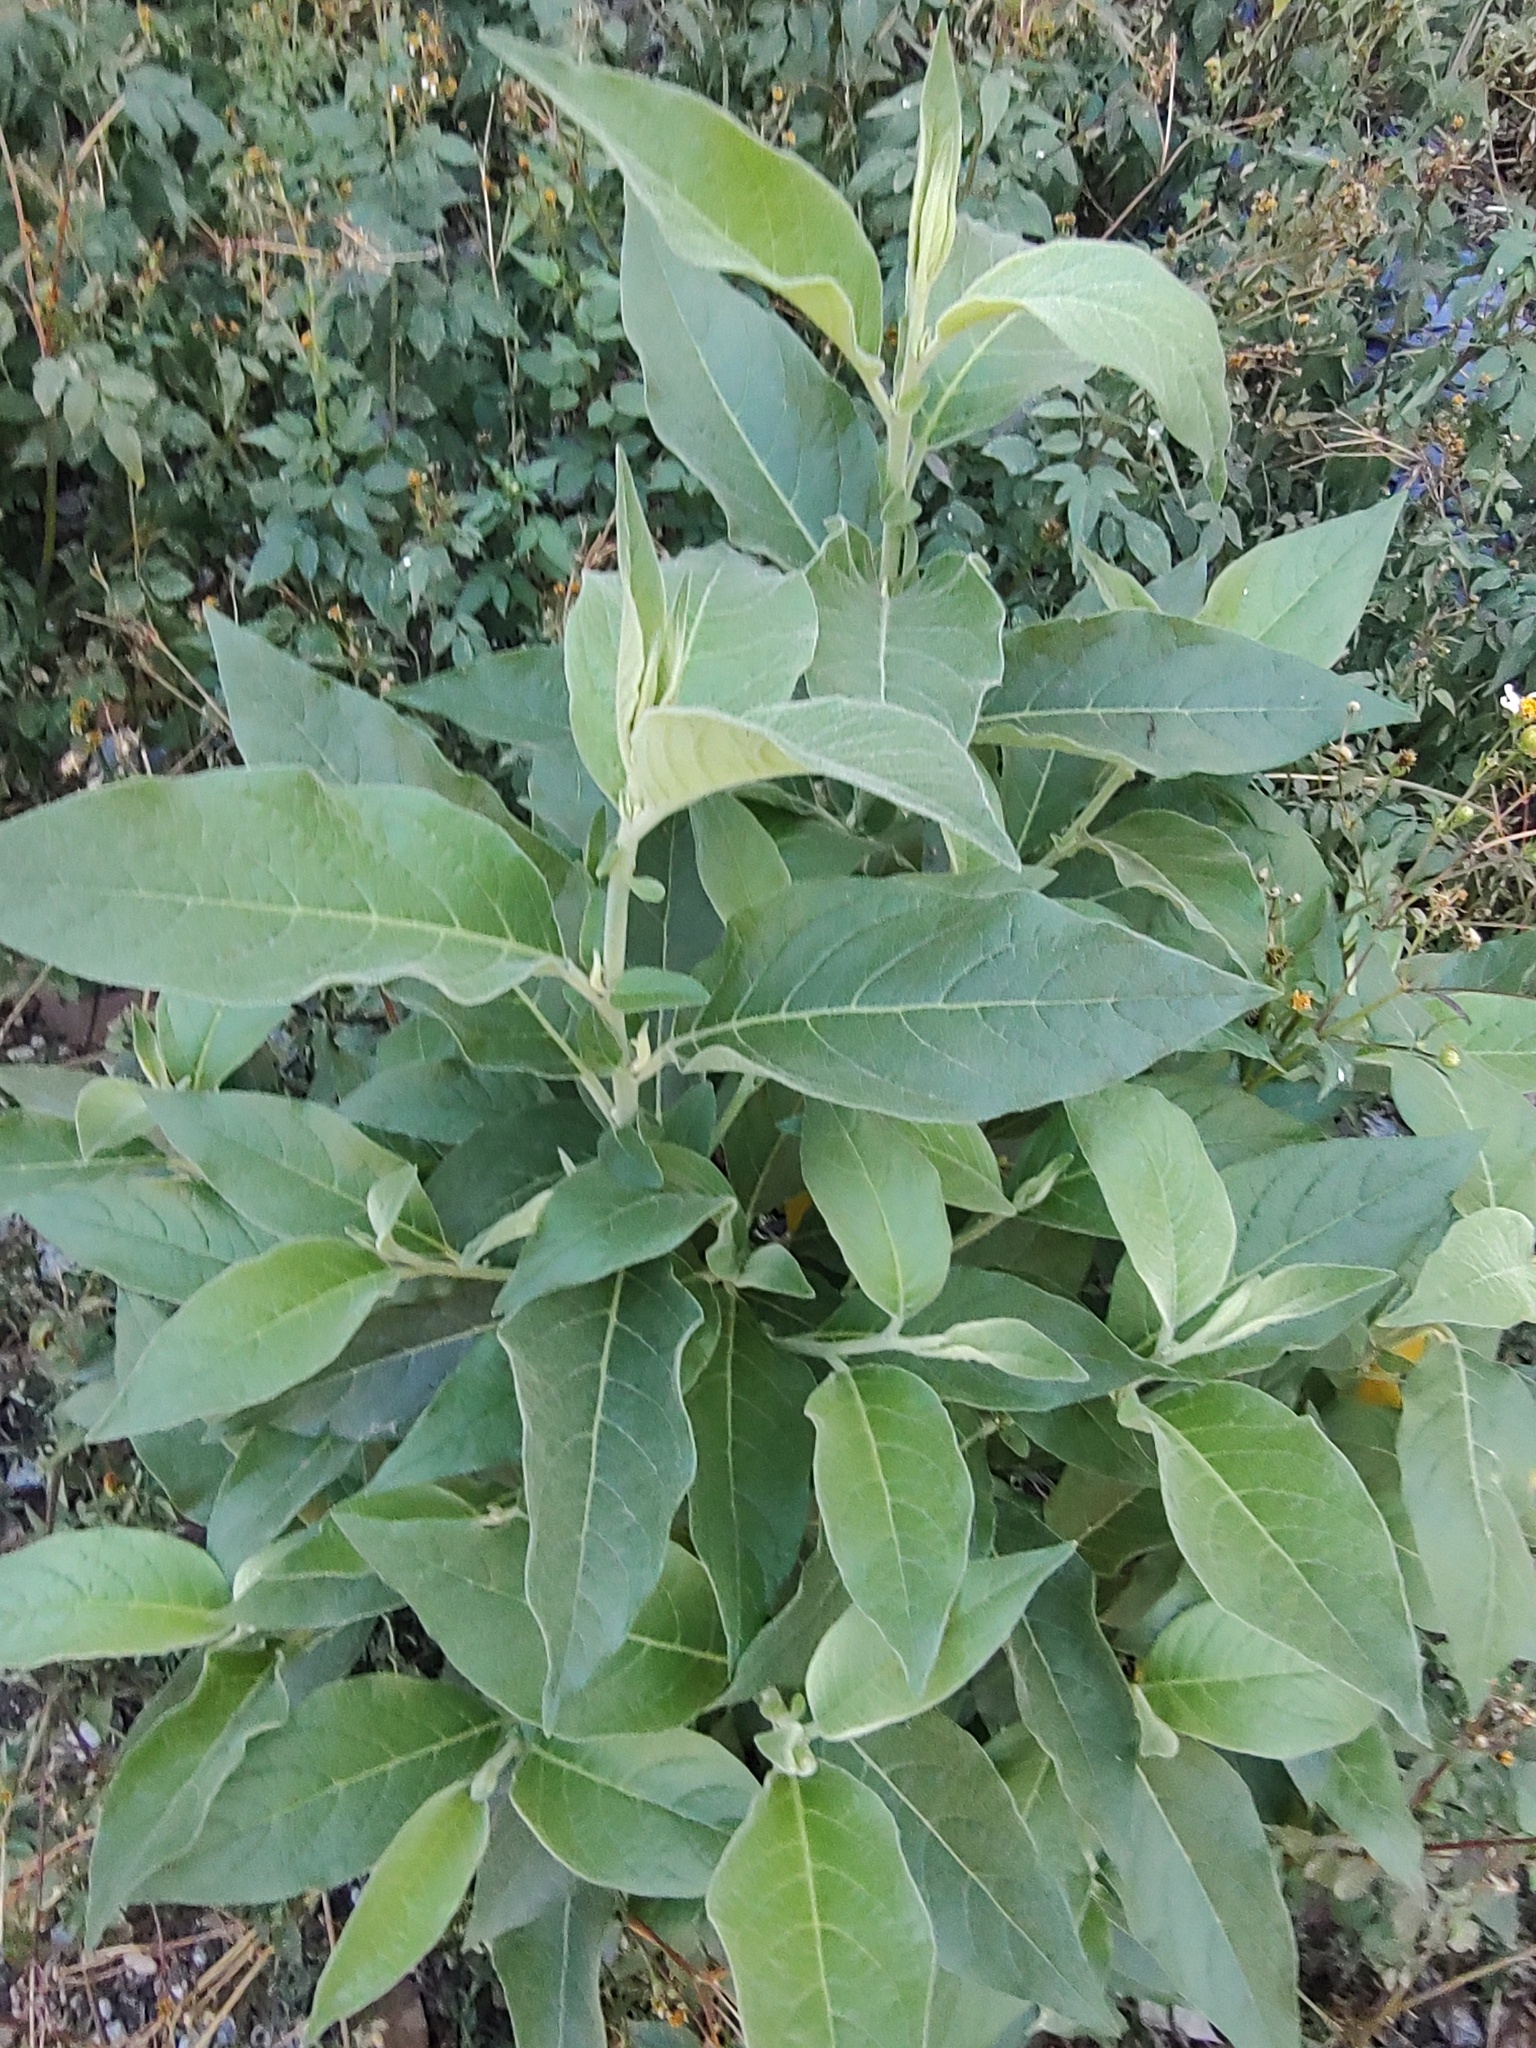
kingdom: Plantae
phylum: Tracheophyta
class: Magnoliopsida
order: Lamiales
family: Scrophulariaceae
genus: Buddleja
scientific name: Buddleja cordata
